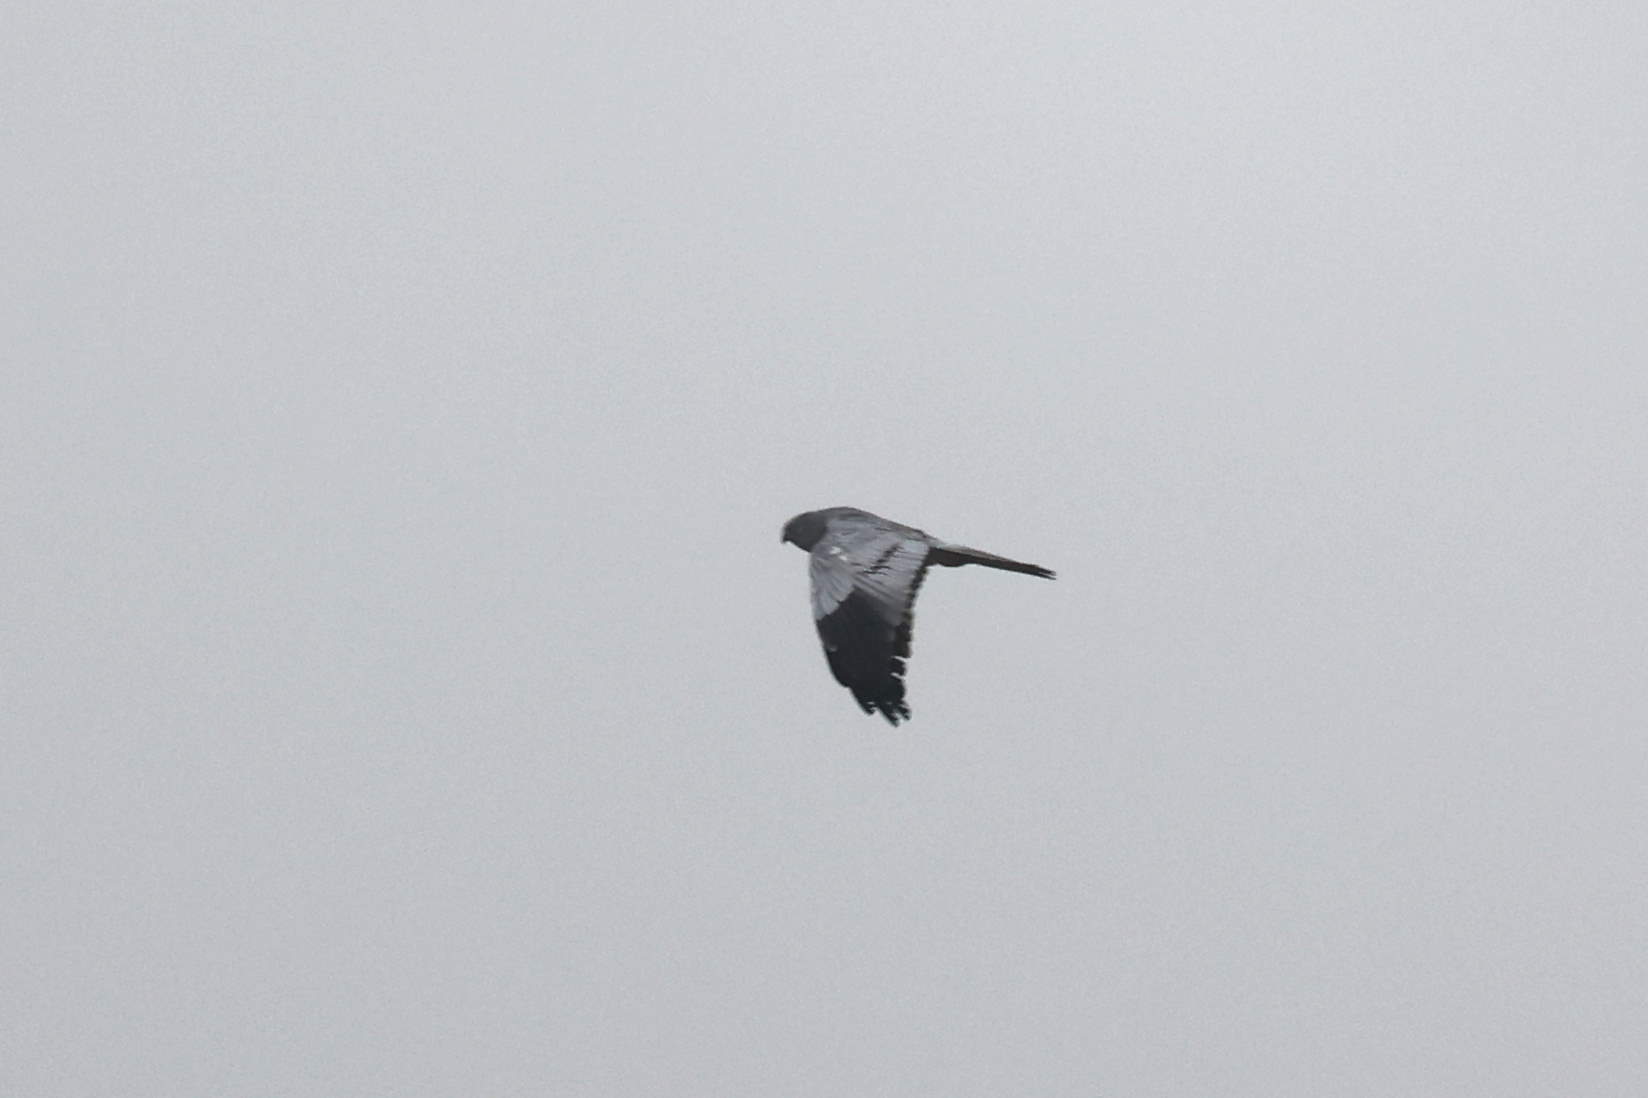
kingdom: Animalia
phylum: Chordata
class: Aves
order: Accipitriformes
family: Accipitridae
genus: Circus
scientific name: Circus pygargus
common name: Montagu's harrier
